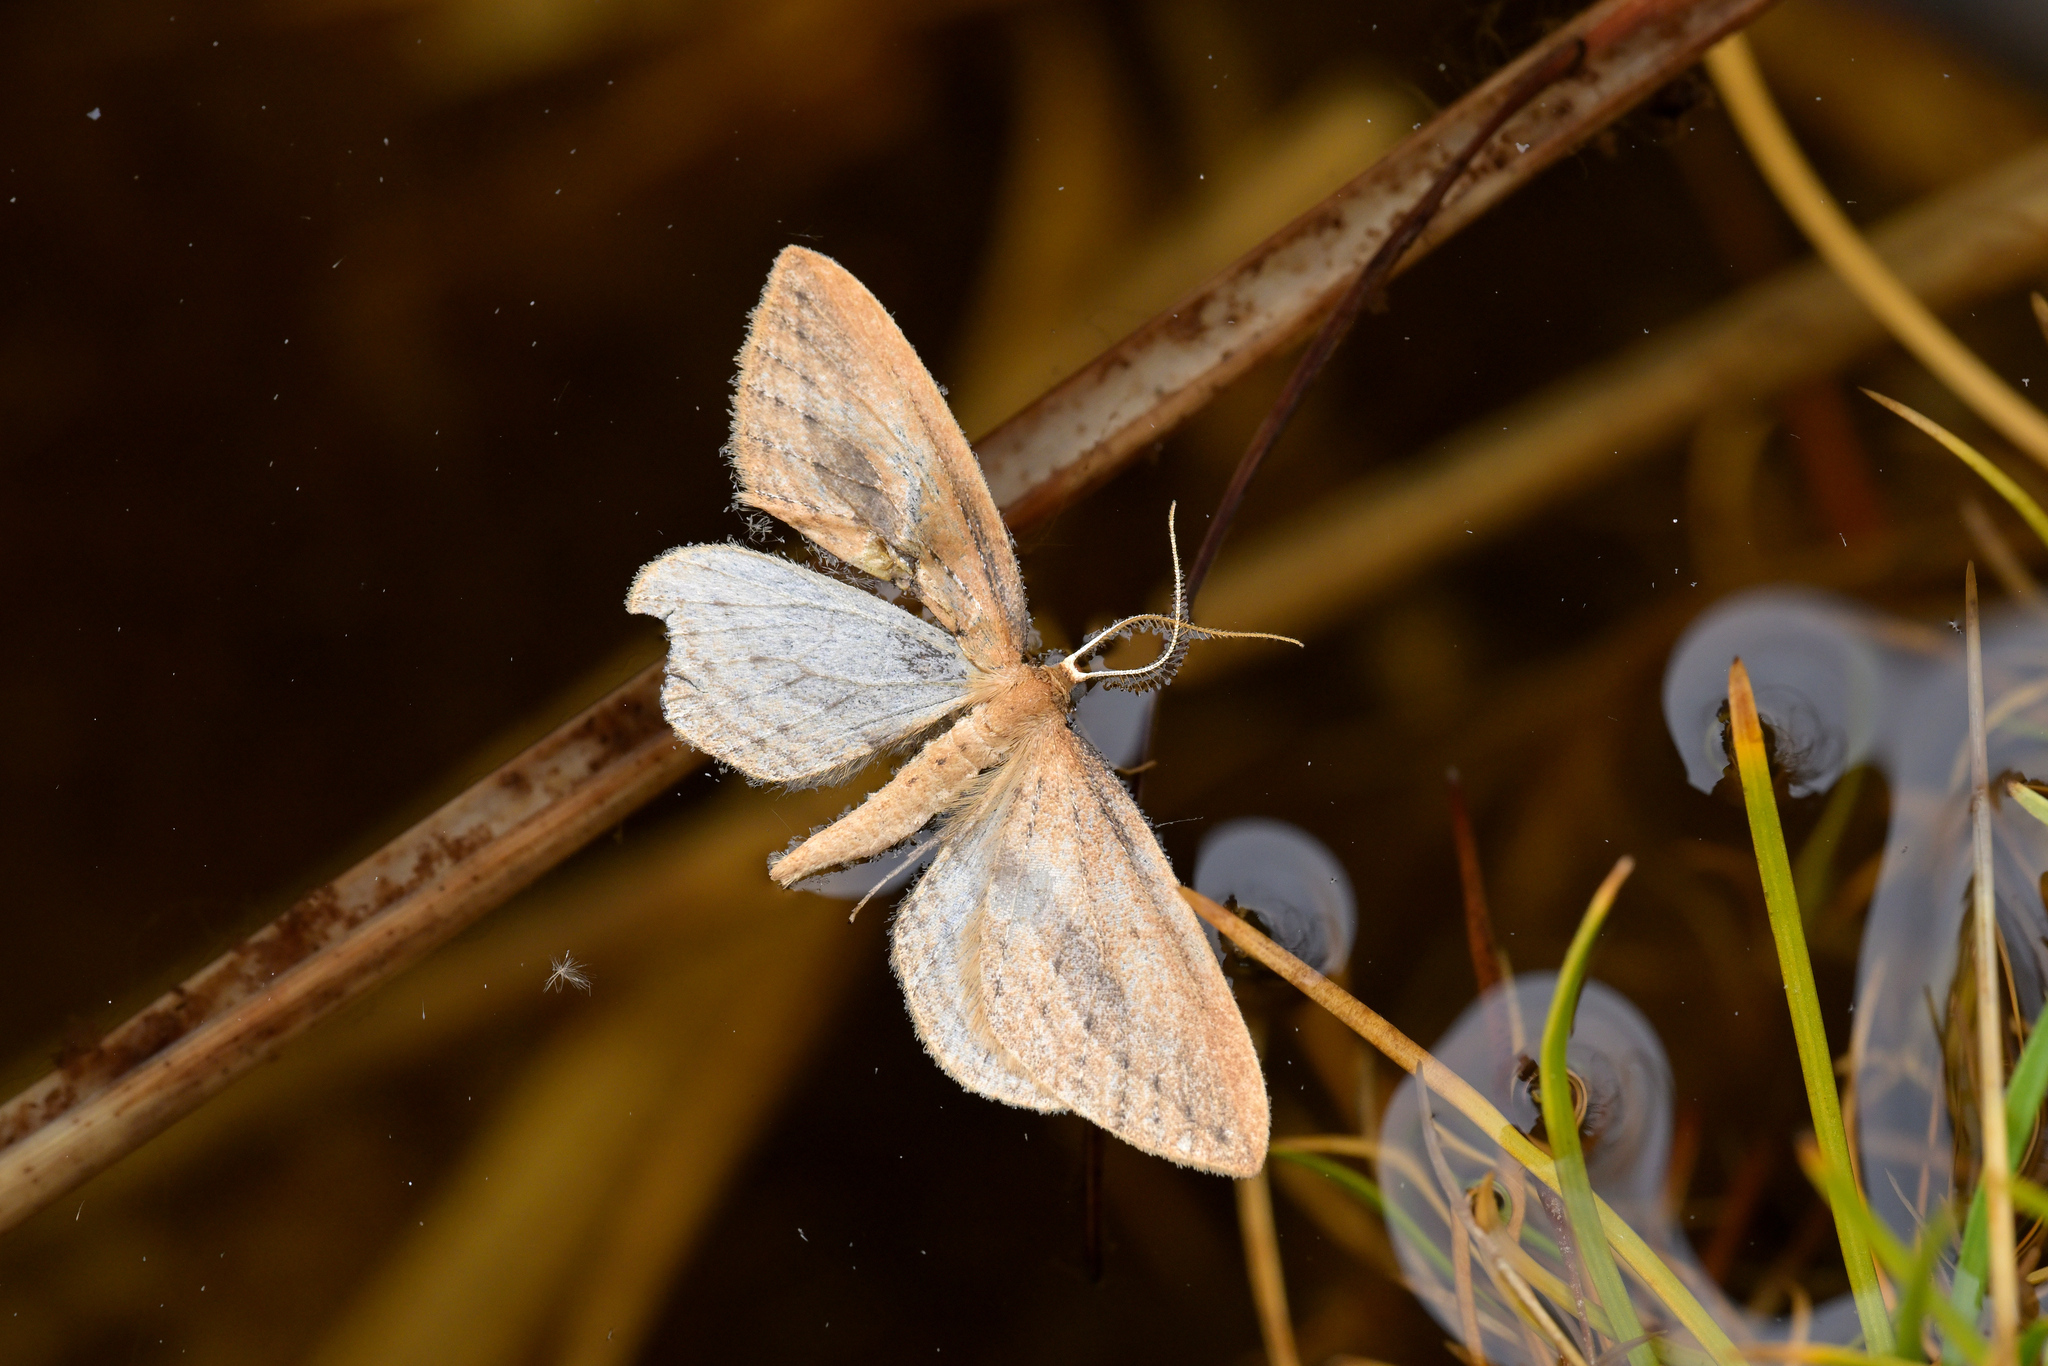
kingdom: Animalia
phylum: Arthropoda
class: Insecta
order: Lepidoptera
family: Geometridae
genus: Epiphryne
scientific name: Epiphryne charidema
